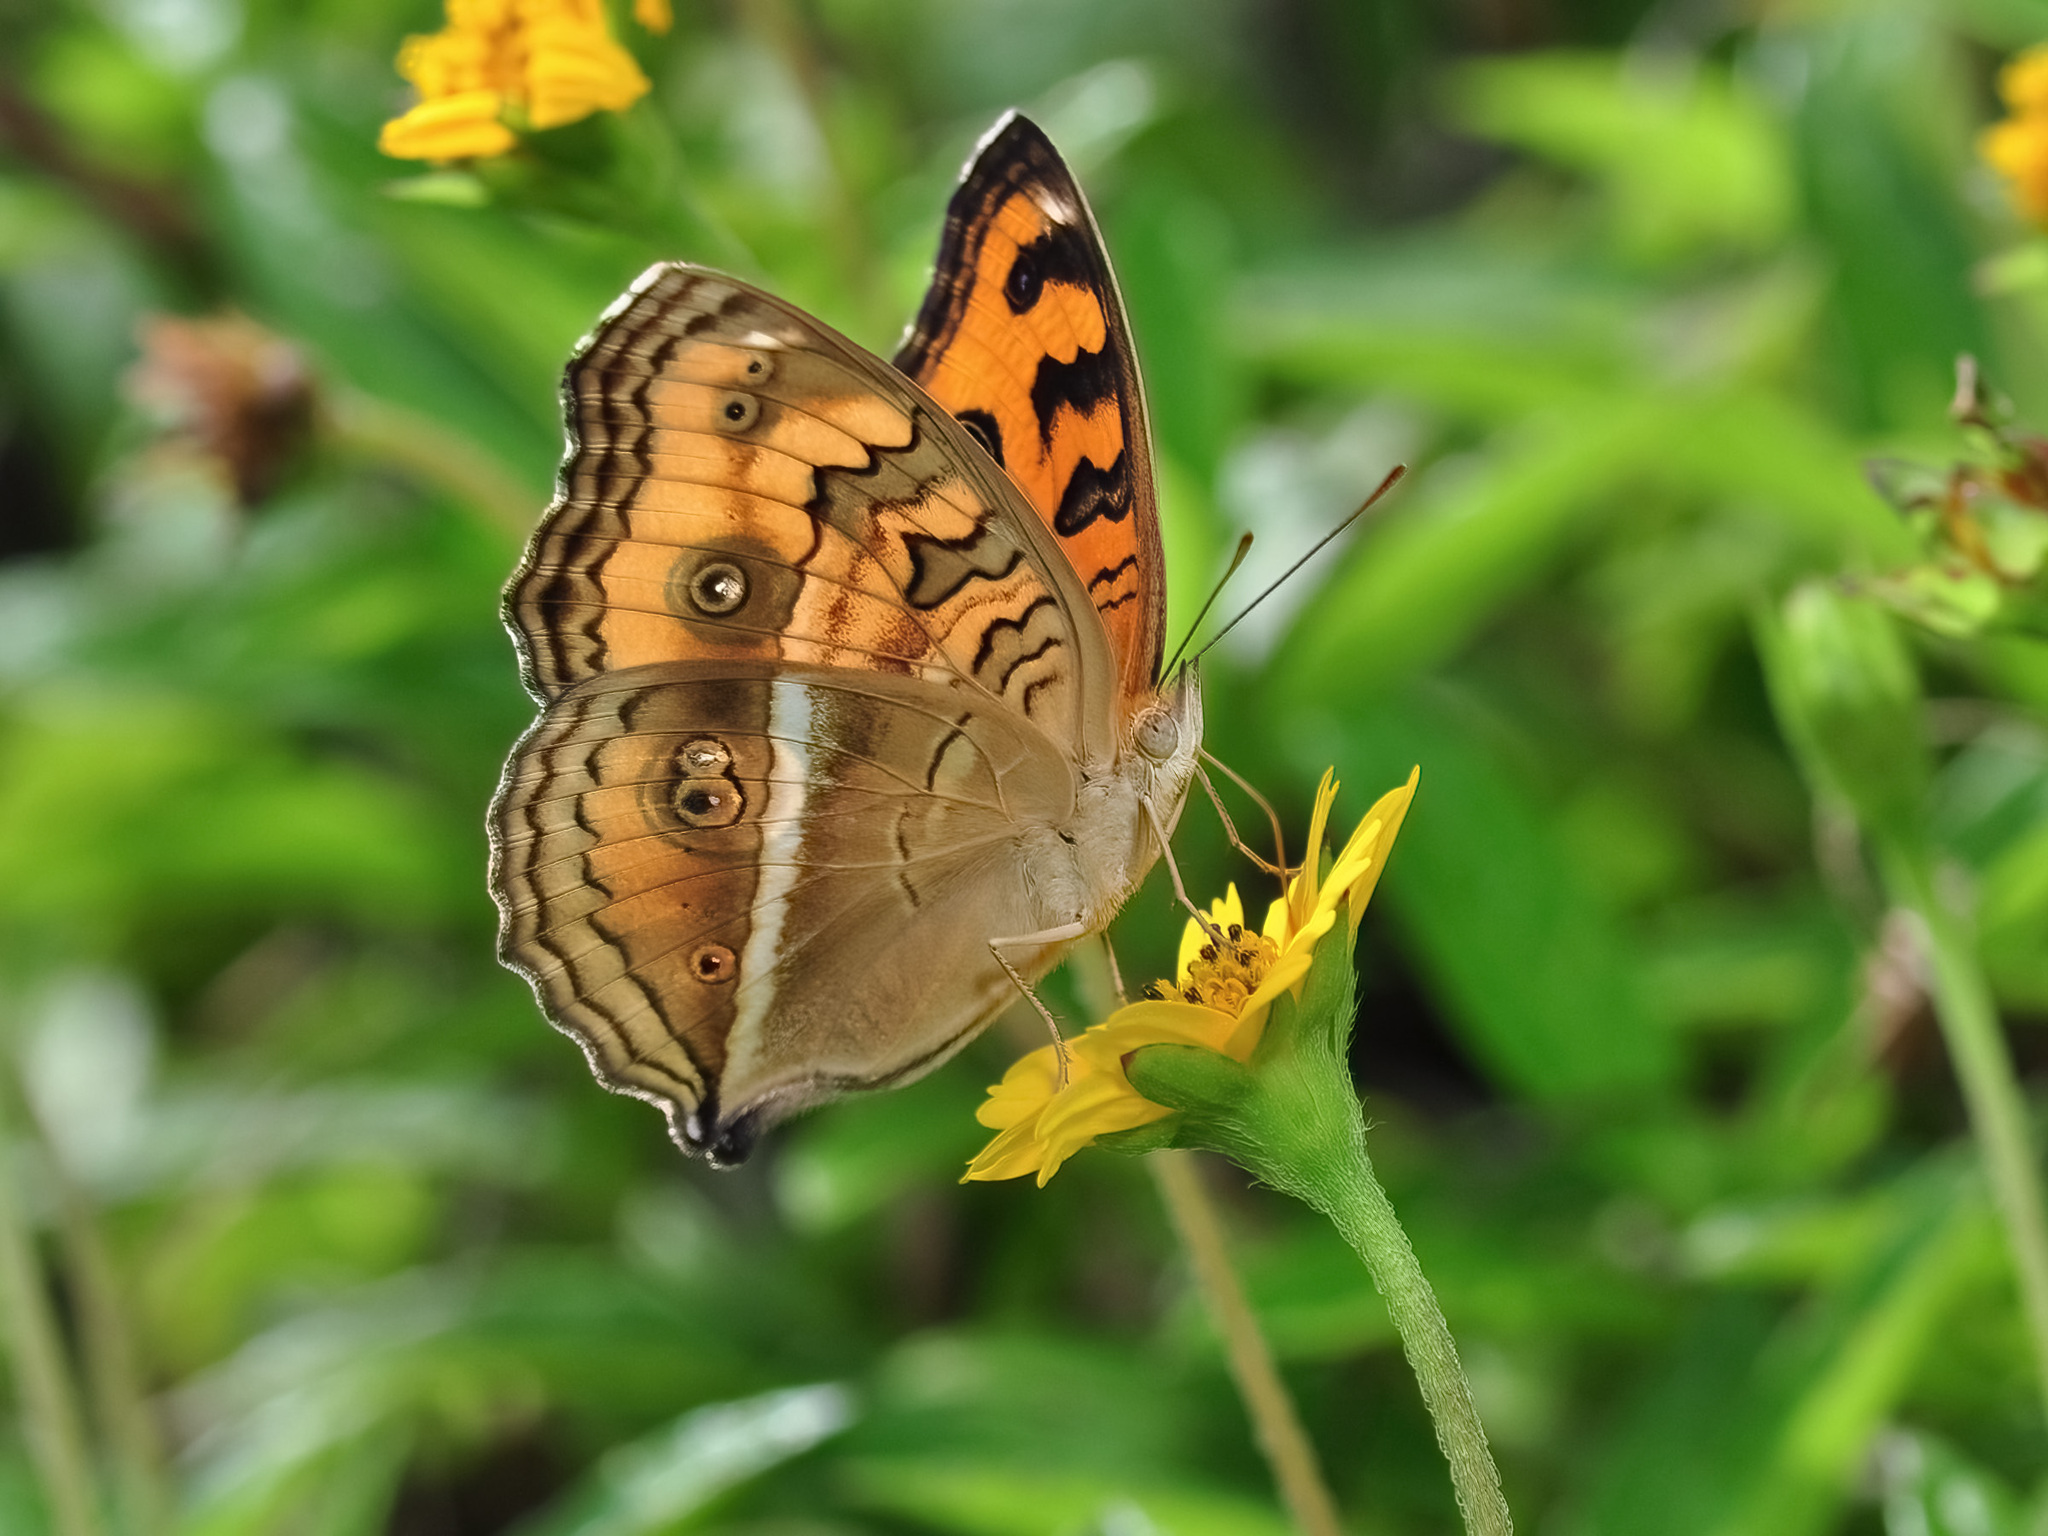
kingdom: Animalia
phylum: Arthropoda
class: Insecta
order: Lepidoptera
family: Nymphalidae
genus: Junonia
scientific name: Junonia almana
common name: Peacock pansy
